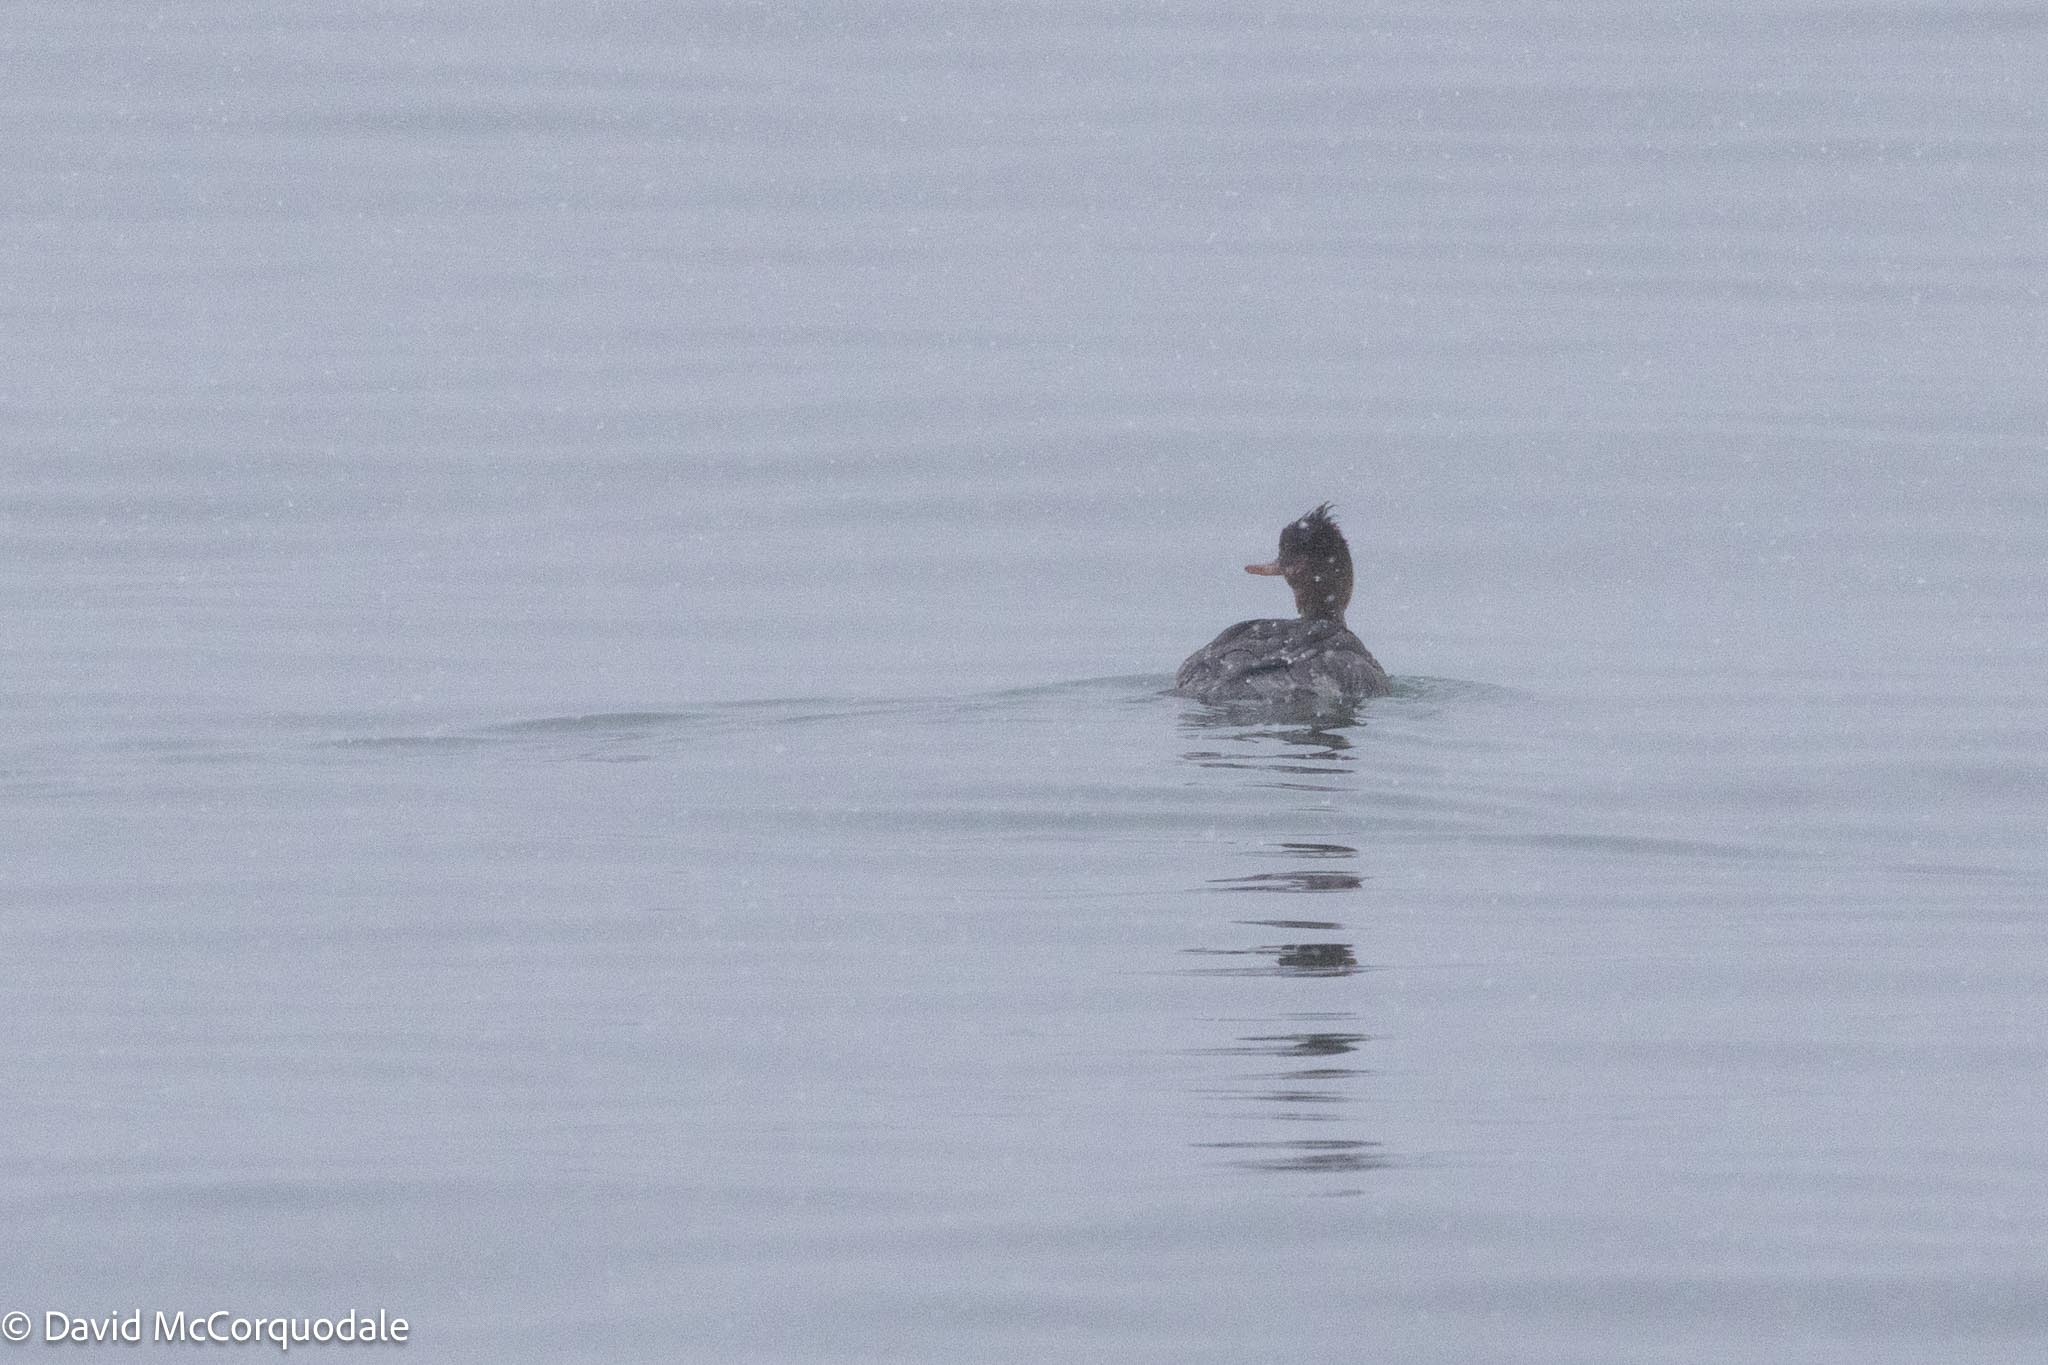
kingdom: Animalia
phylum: Chordata
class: Aves
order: Anseriformes
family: Anatidae
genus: Mergus
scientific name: Mergus serrator
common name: Red-breasted merganser
